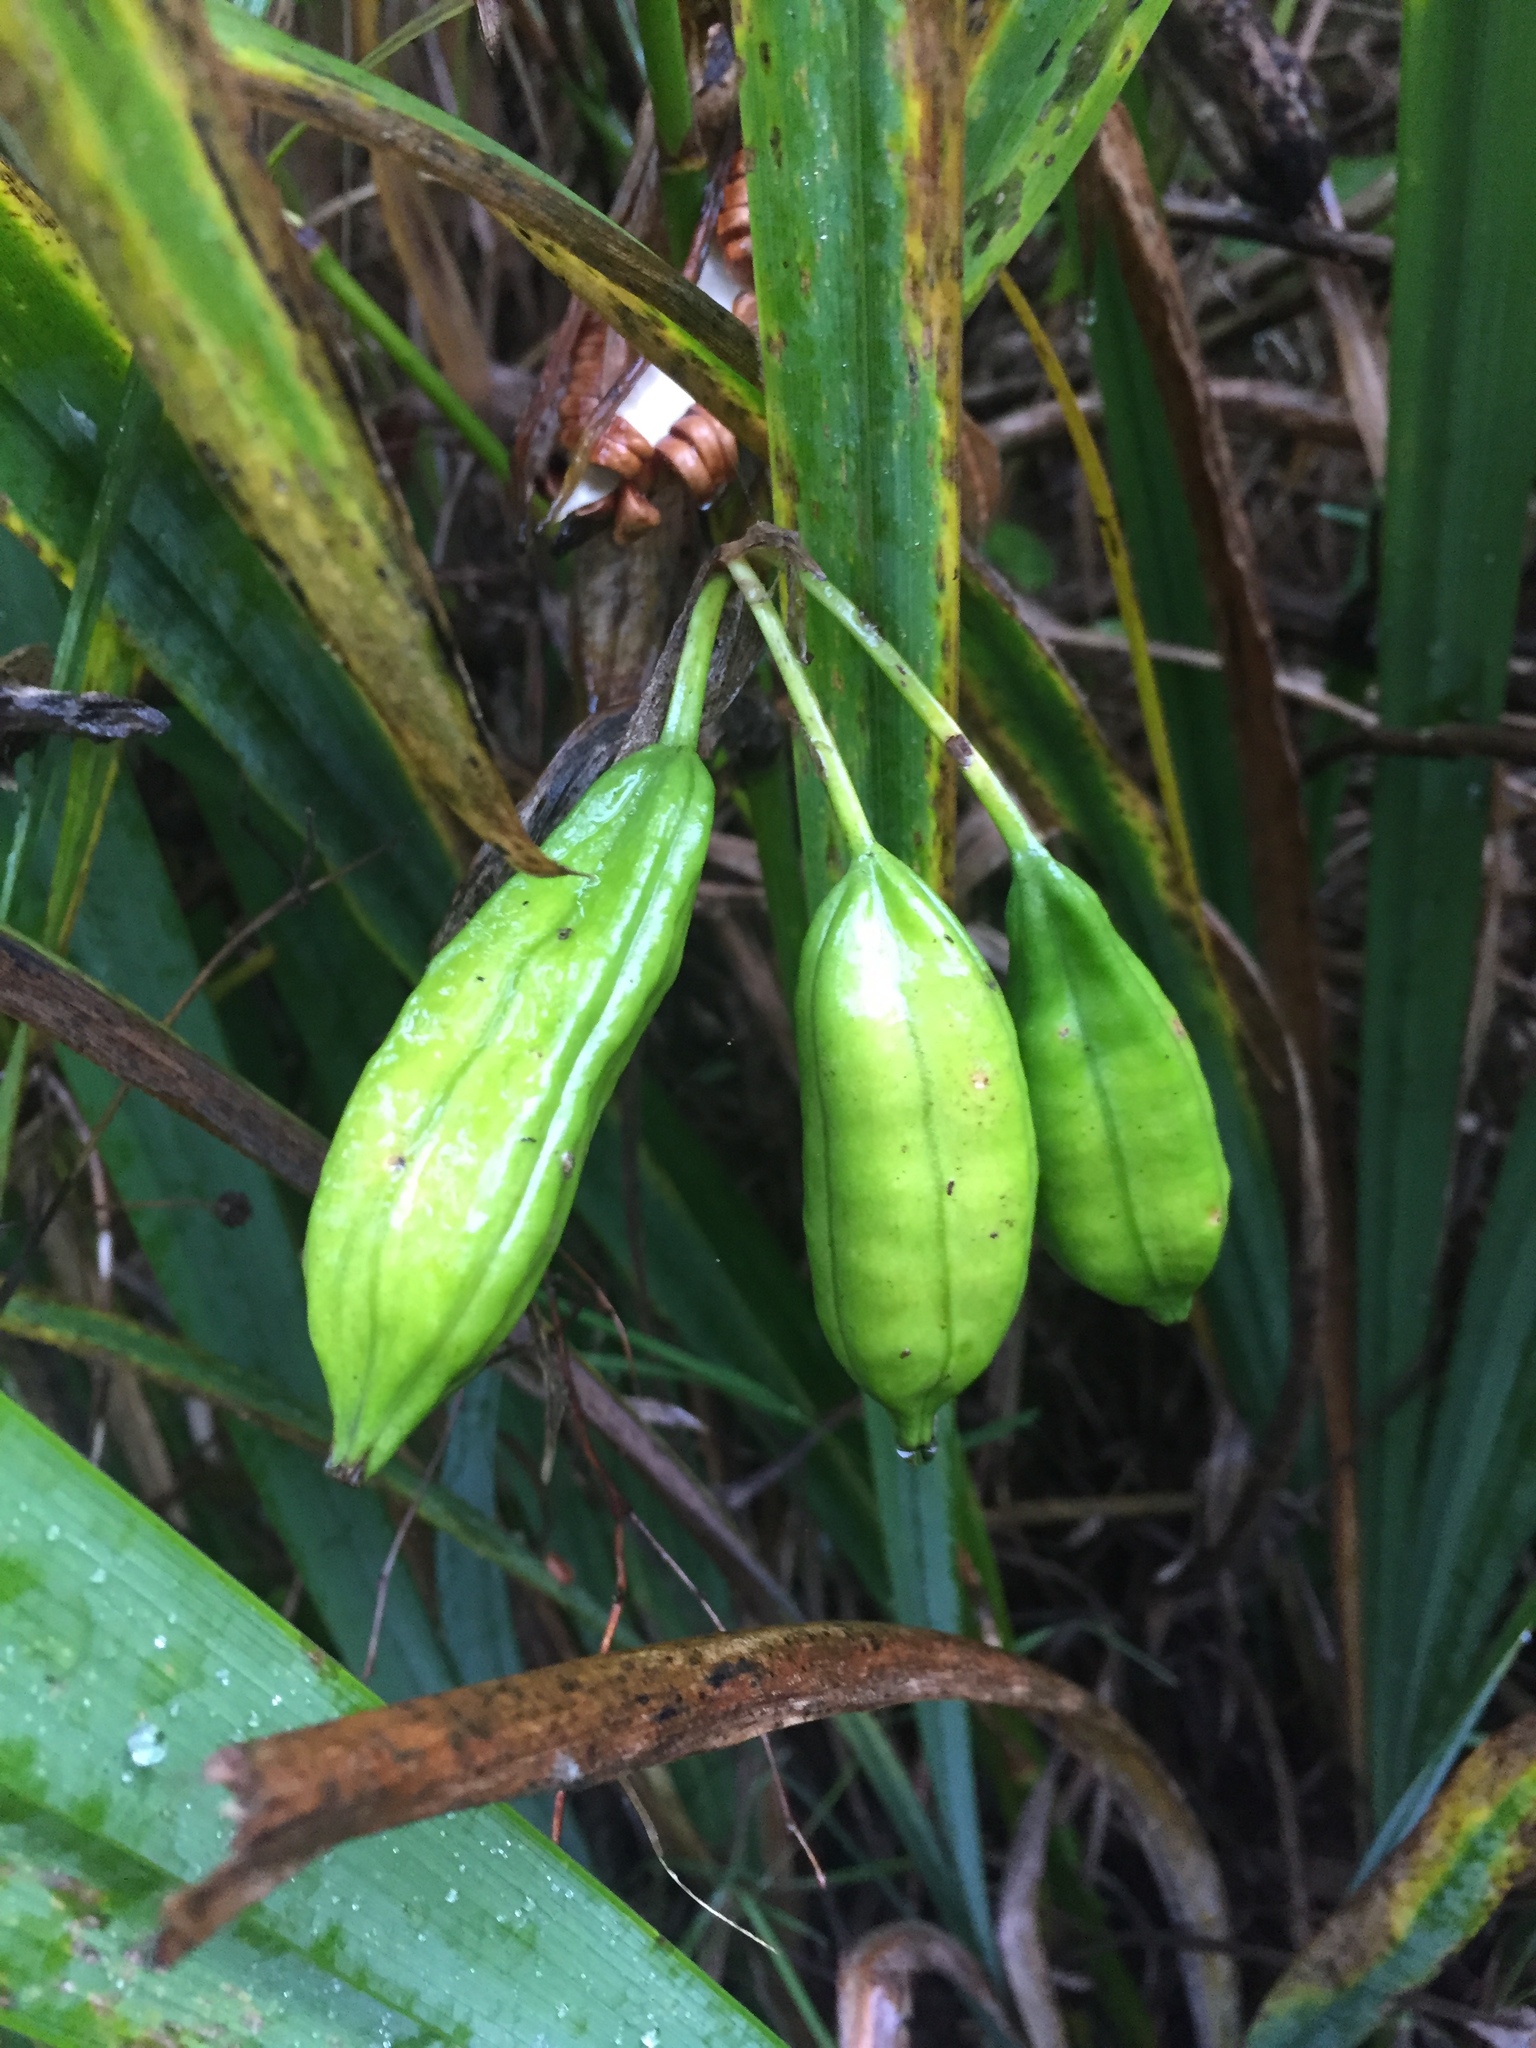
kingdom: Plantae
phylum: Tracheophyta
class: Liliopsida
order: Asparagales
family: Iridaceae
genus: Iris
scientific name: Iris pseudacorus
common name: Yellow flag
